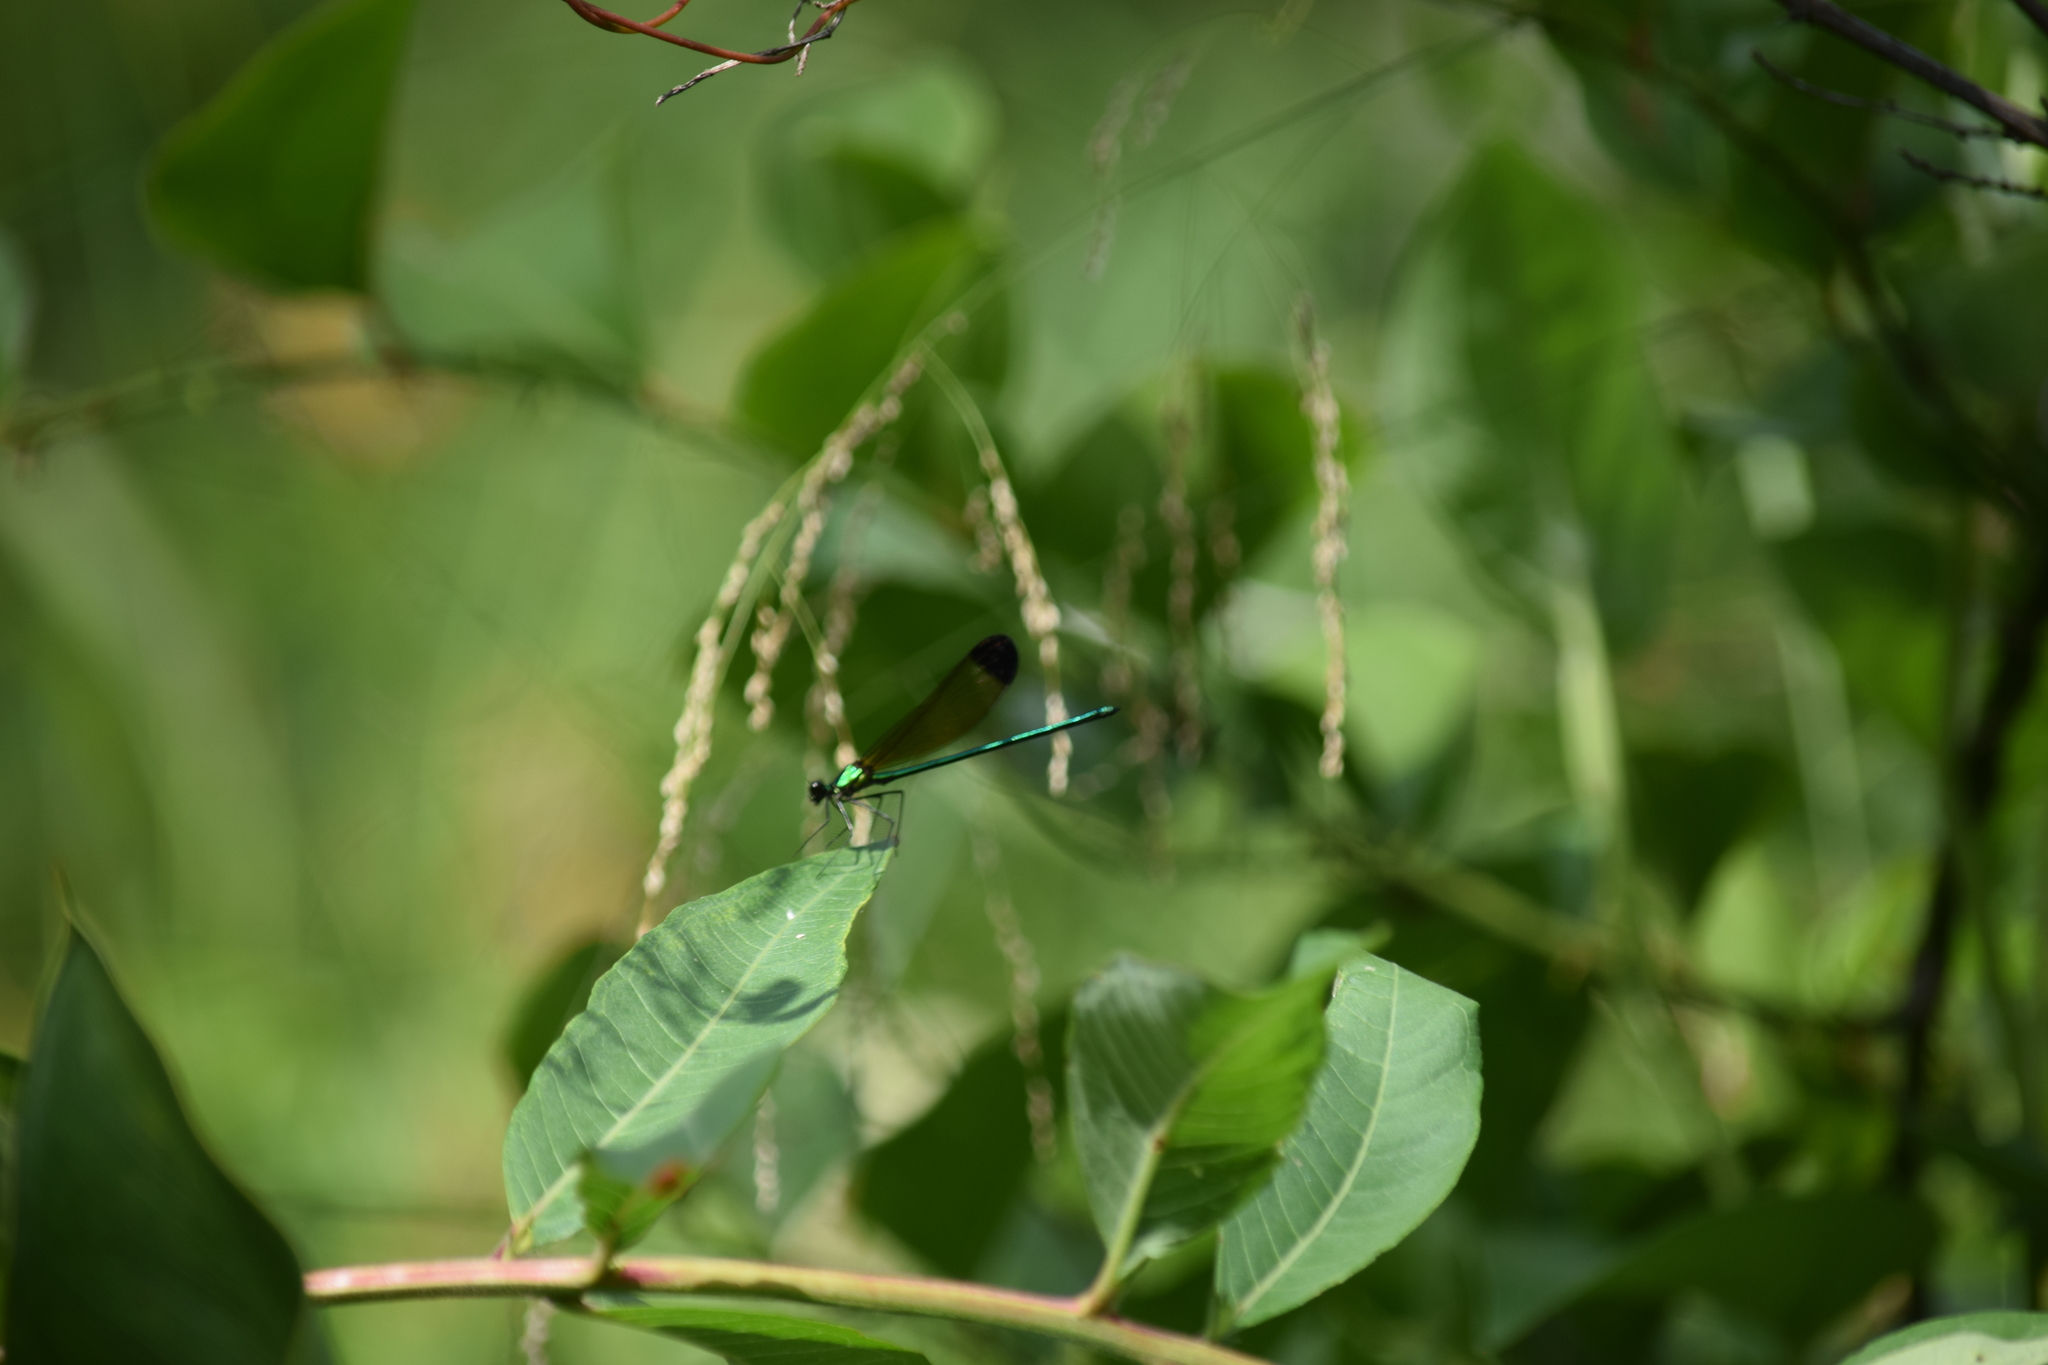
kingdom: Animalia
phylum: Arthropoda
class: Insecta
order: Odonata
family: Calopterygidae
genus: Calopteryx
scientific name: Calopteryx dimidiata
